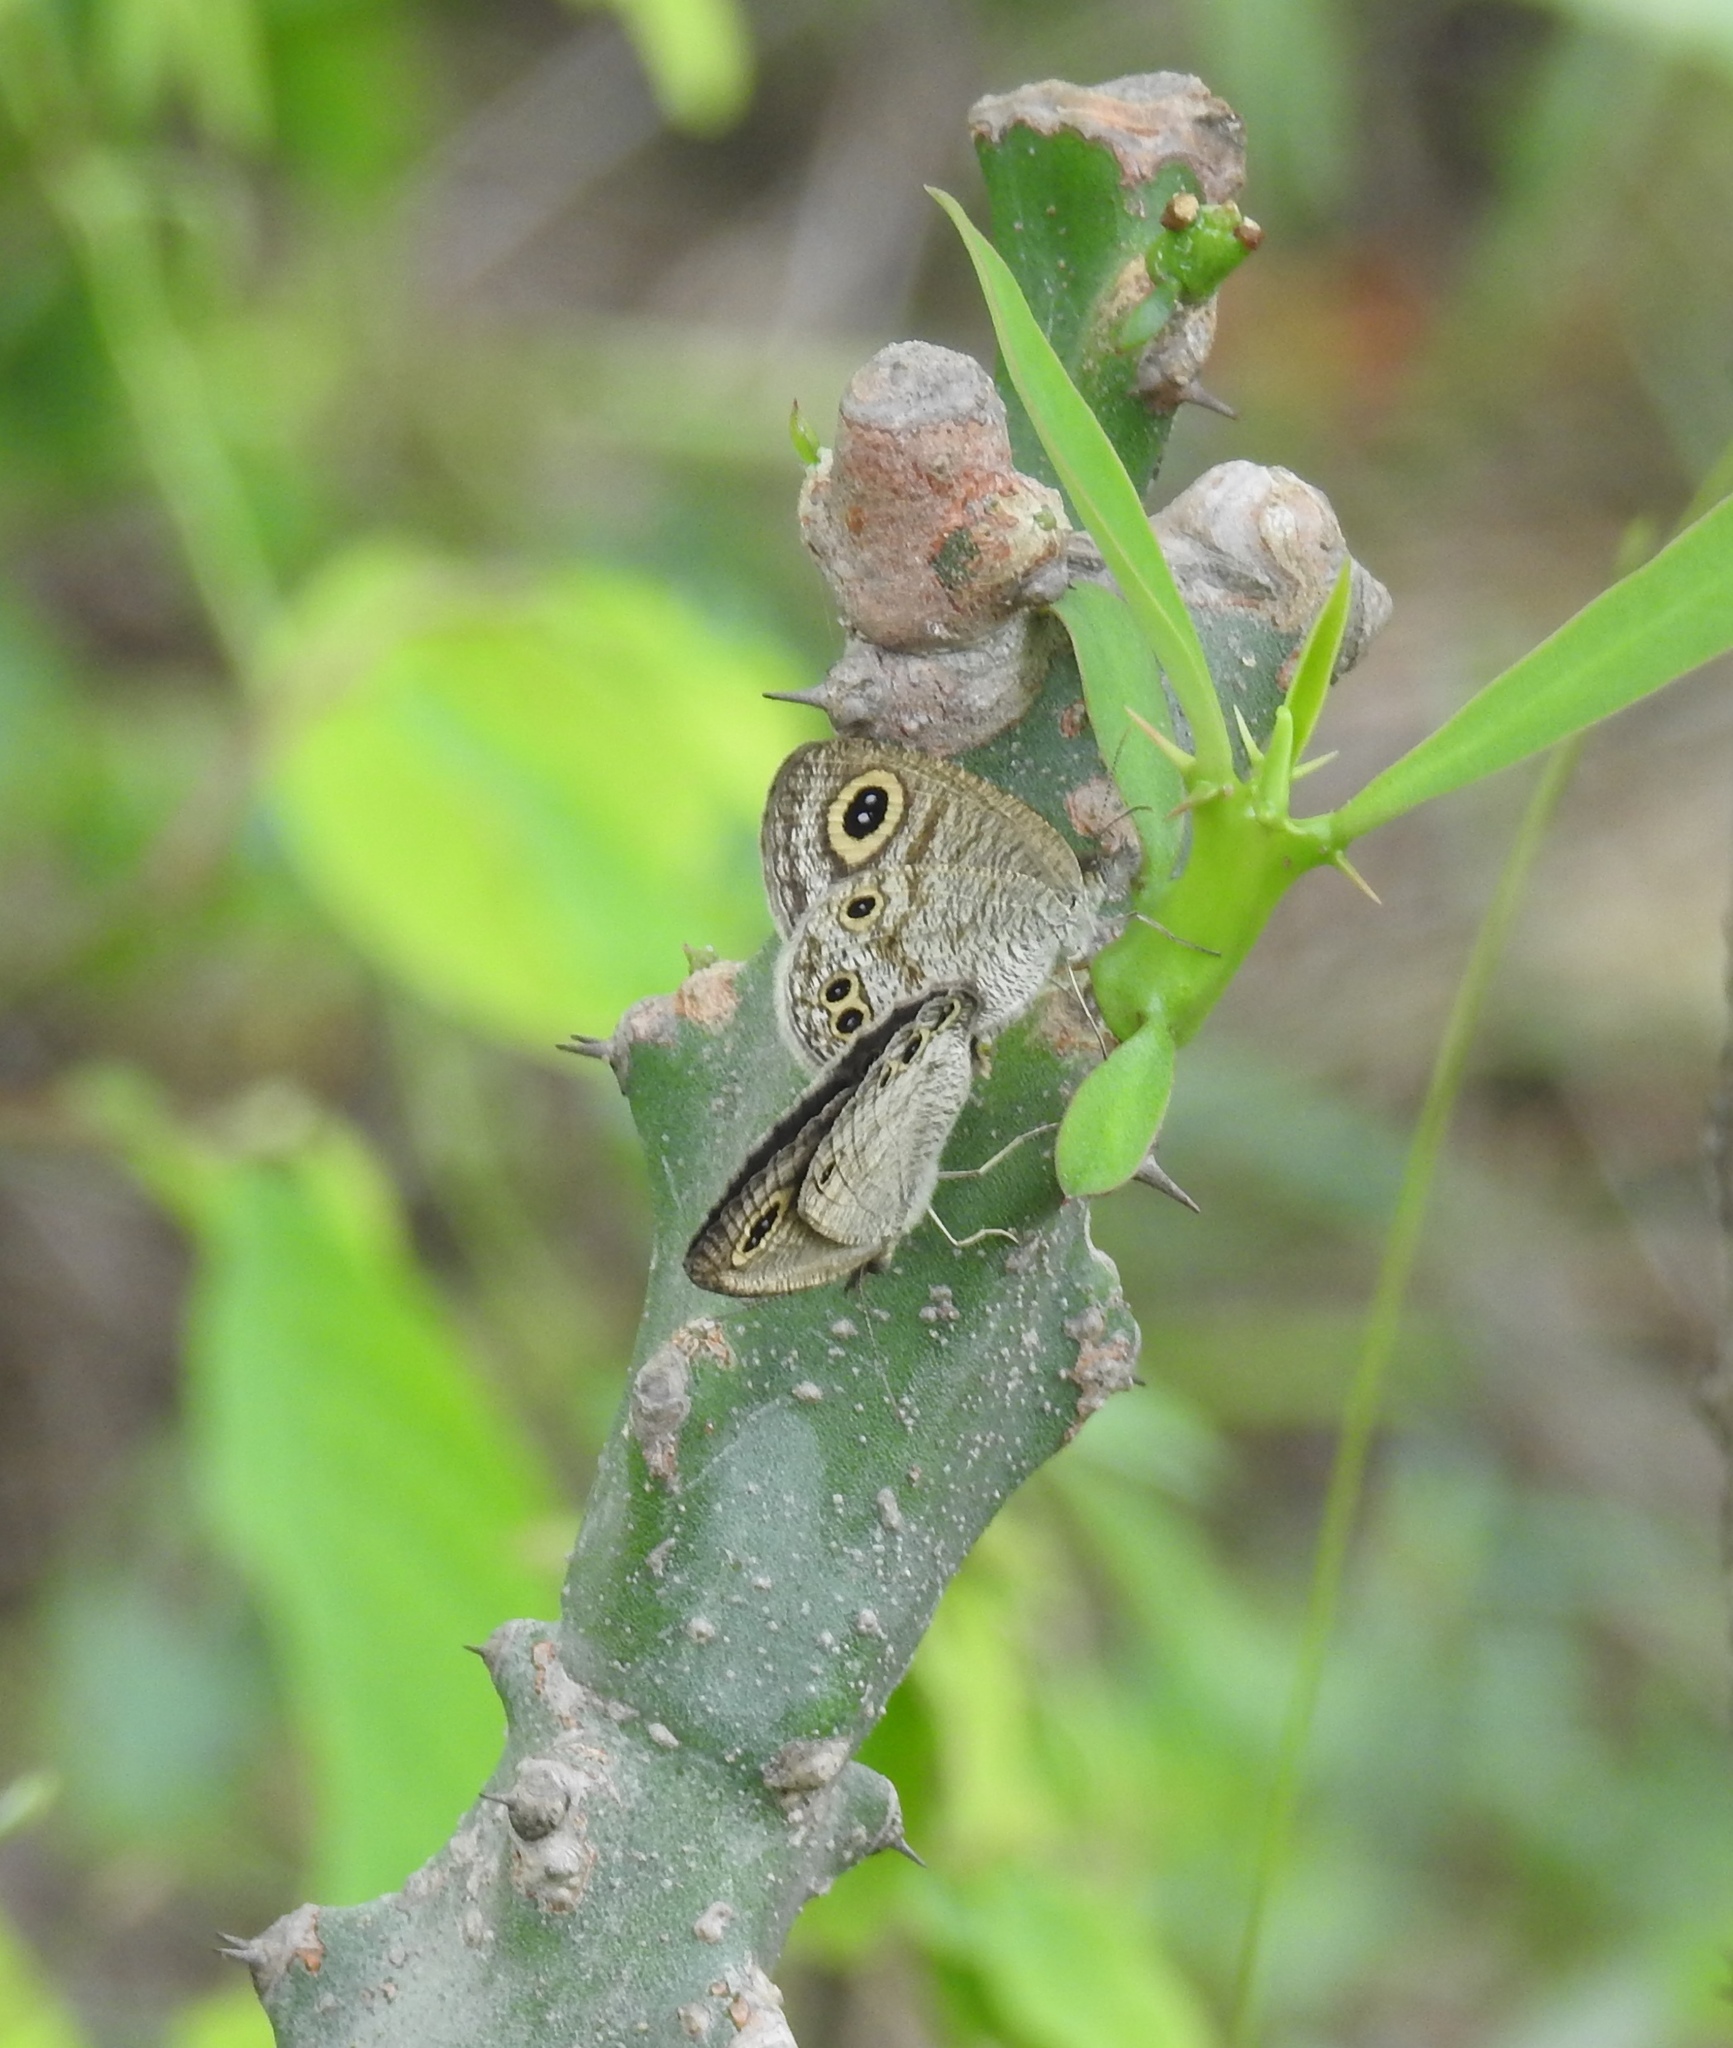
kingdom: Animalia
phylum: Arthropoda
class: Insecta
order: Lepidoptera
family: Nymphalidae
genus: Ypthima
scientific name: Ypthima huebneri
